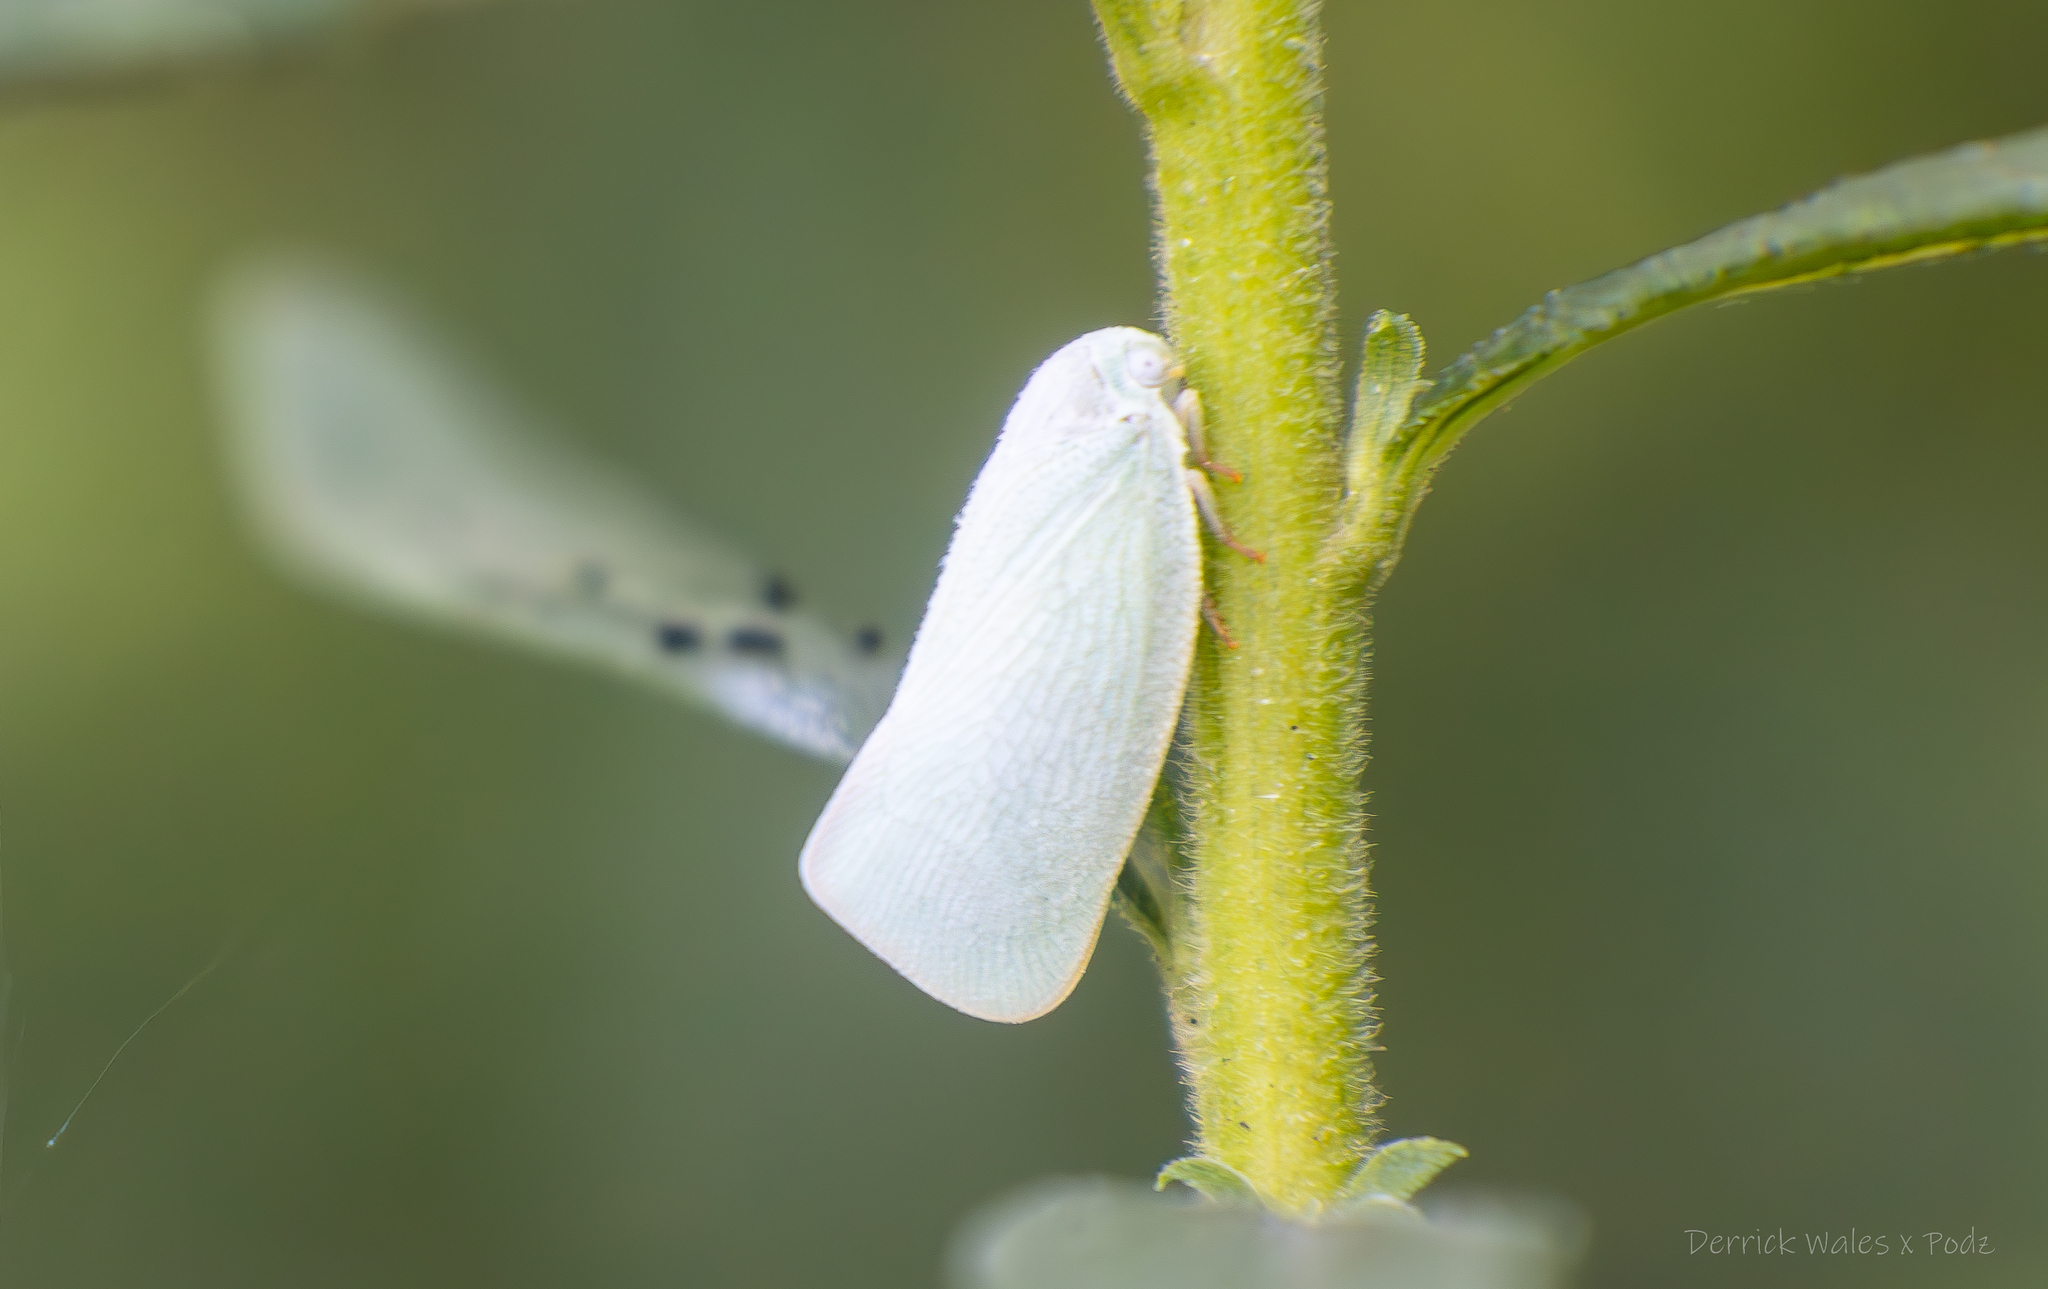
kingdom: Animalia
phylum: Arthropoda
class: Insecta
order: Hemiptera
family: Flatidae
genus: Flatormenis
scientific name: Flatormenis proxima
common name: Northern flatid planthopper
